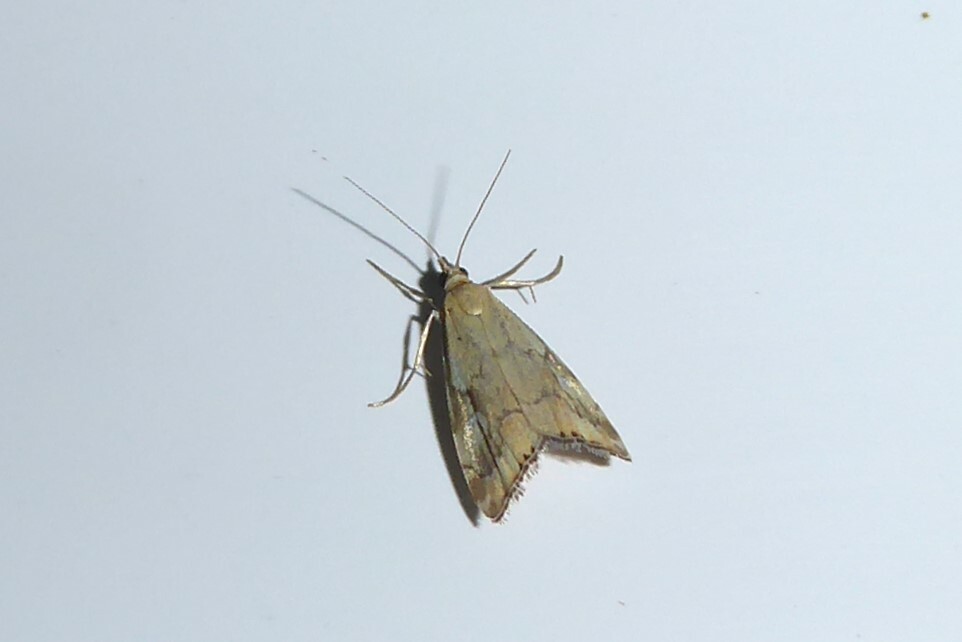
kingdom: Animalia
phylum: Arthropoda
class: Insecta
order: Lepidoptera
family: Crambidae
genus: Glaucocharis
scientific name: Glaucocharis lepidella
